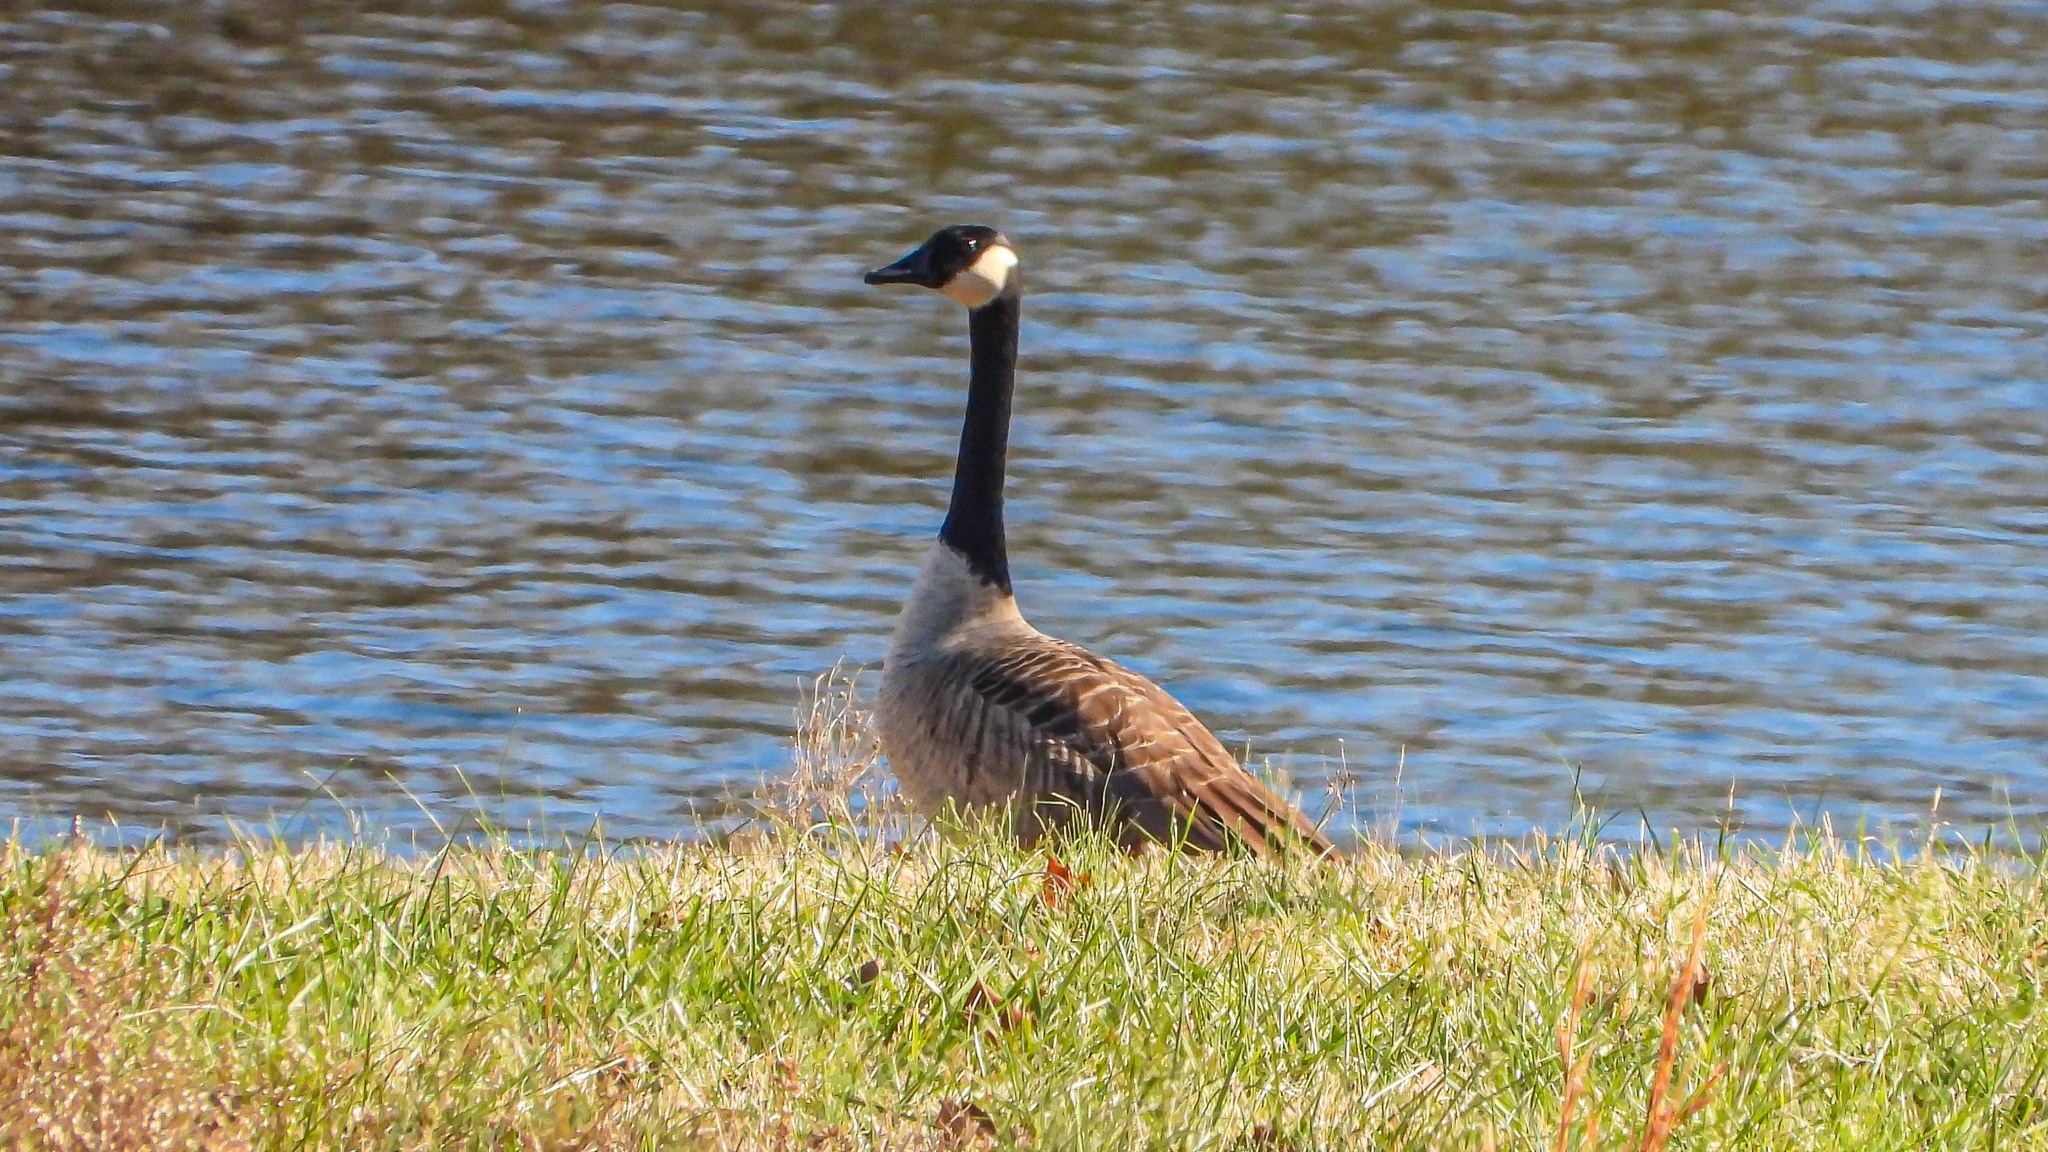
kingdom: Animalia
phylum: Chordata
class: Aves
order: Anseriformes
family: Anatidae
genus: Branta
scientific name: Branta canadensis
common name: Canada goose
